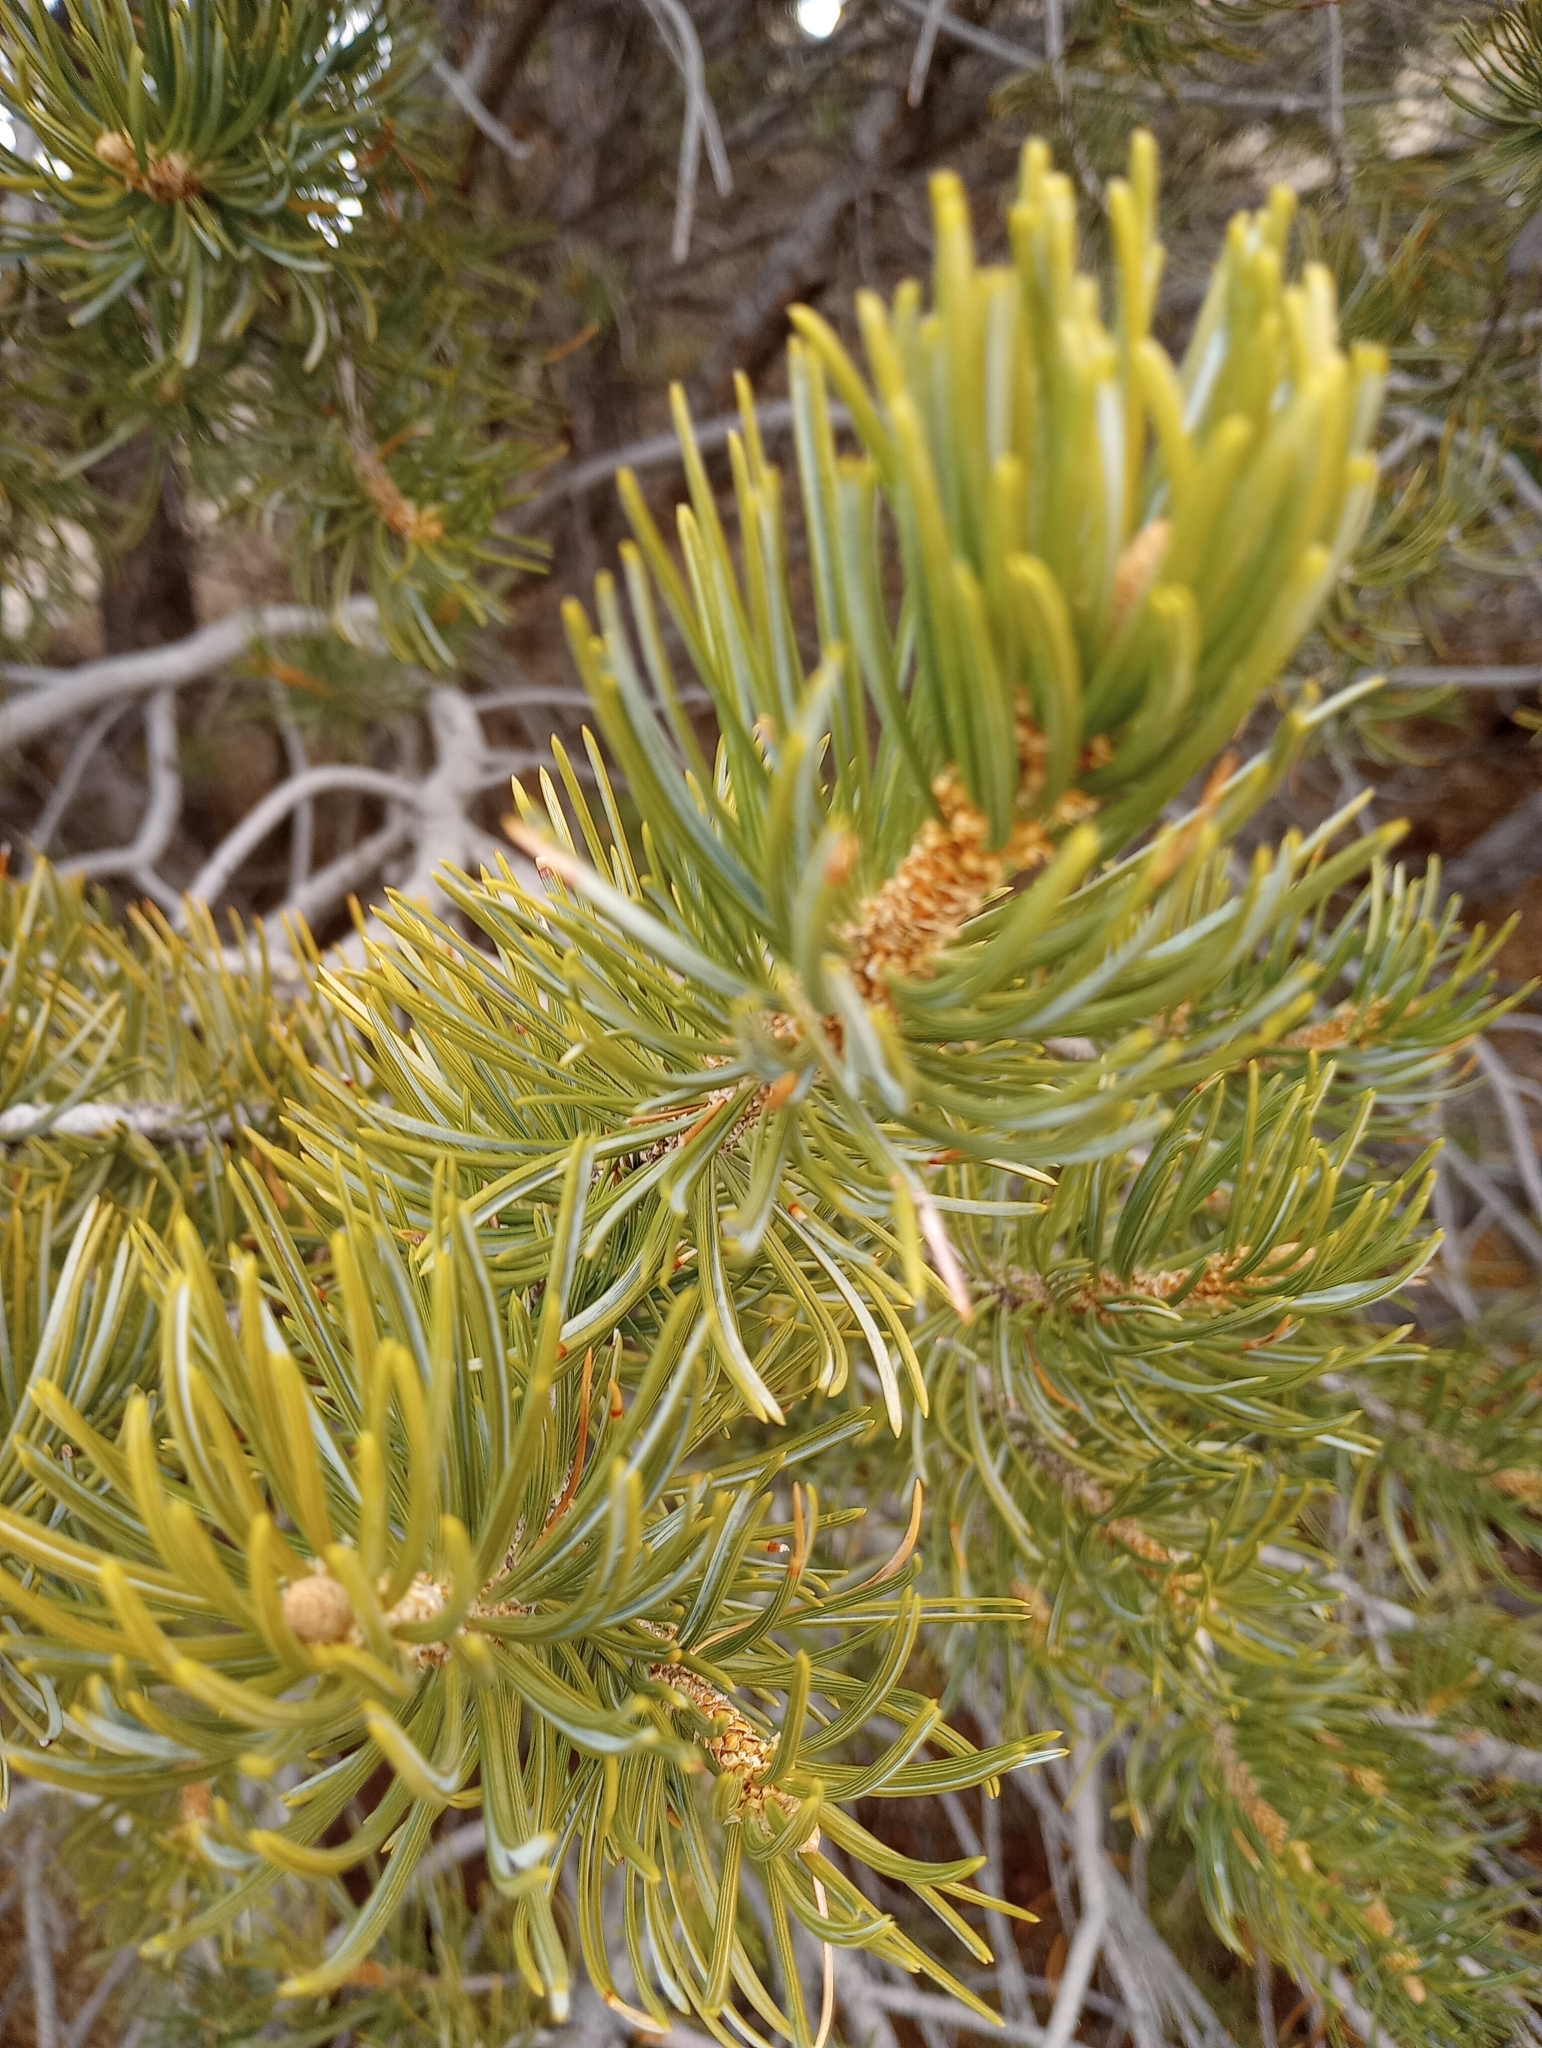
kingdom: Plantae
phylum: Tracheophyta
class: Pinopsida
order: Pinales
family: Pinaceae
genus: Pinus
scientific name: Pinus edulis
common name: Colorado pinyon
